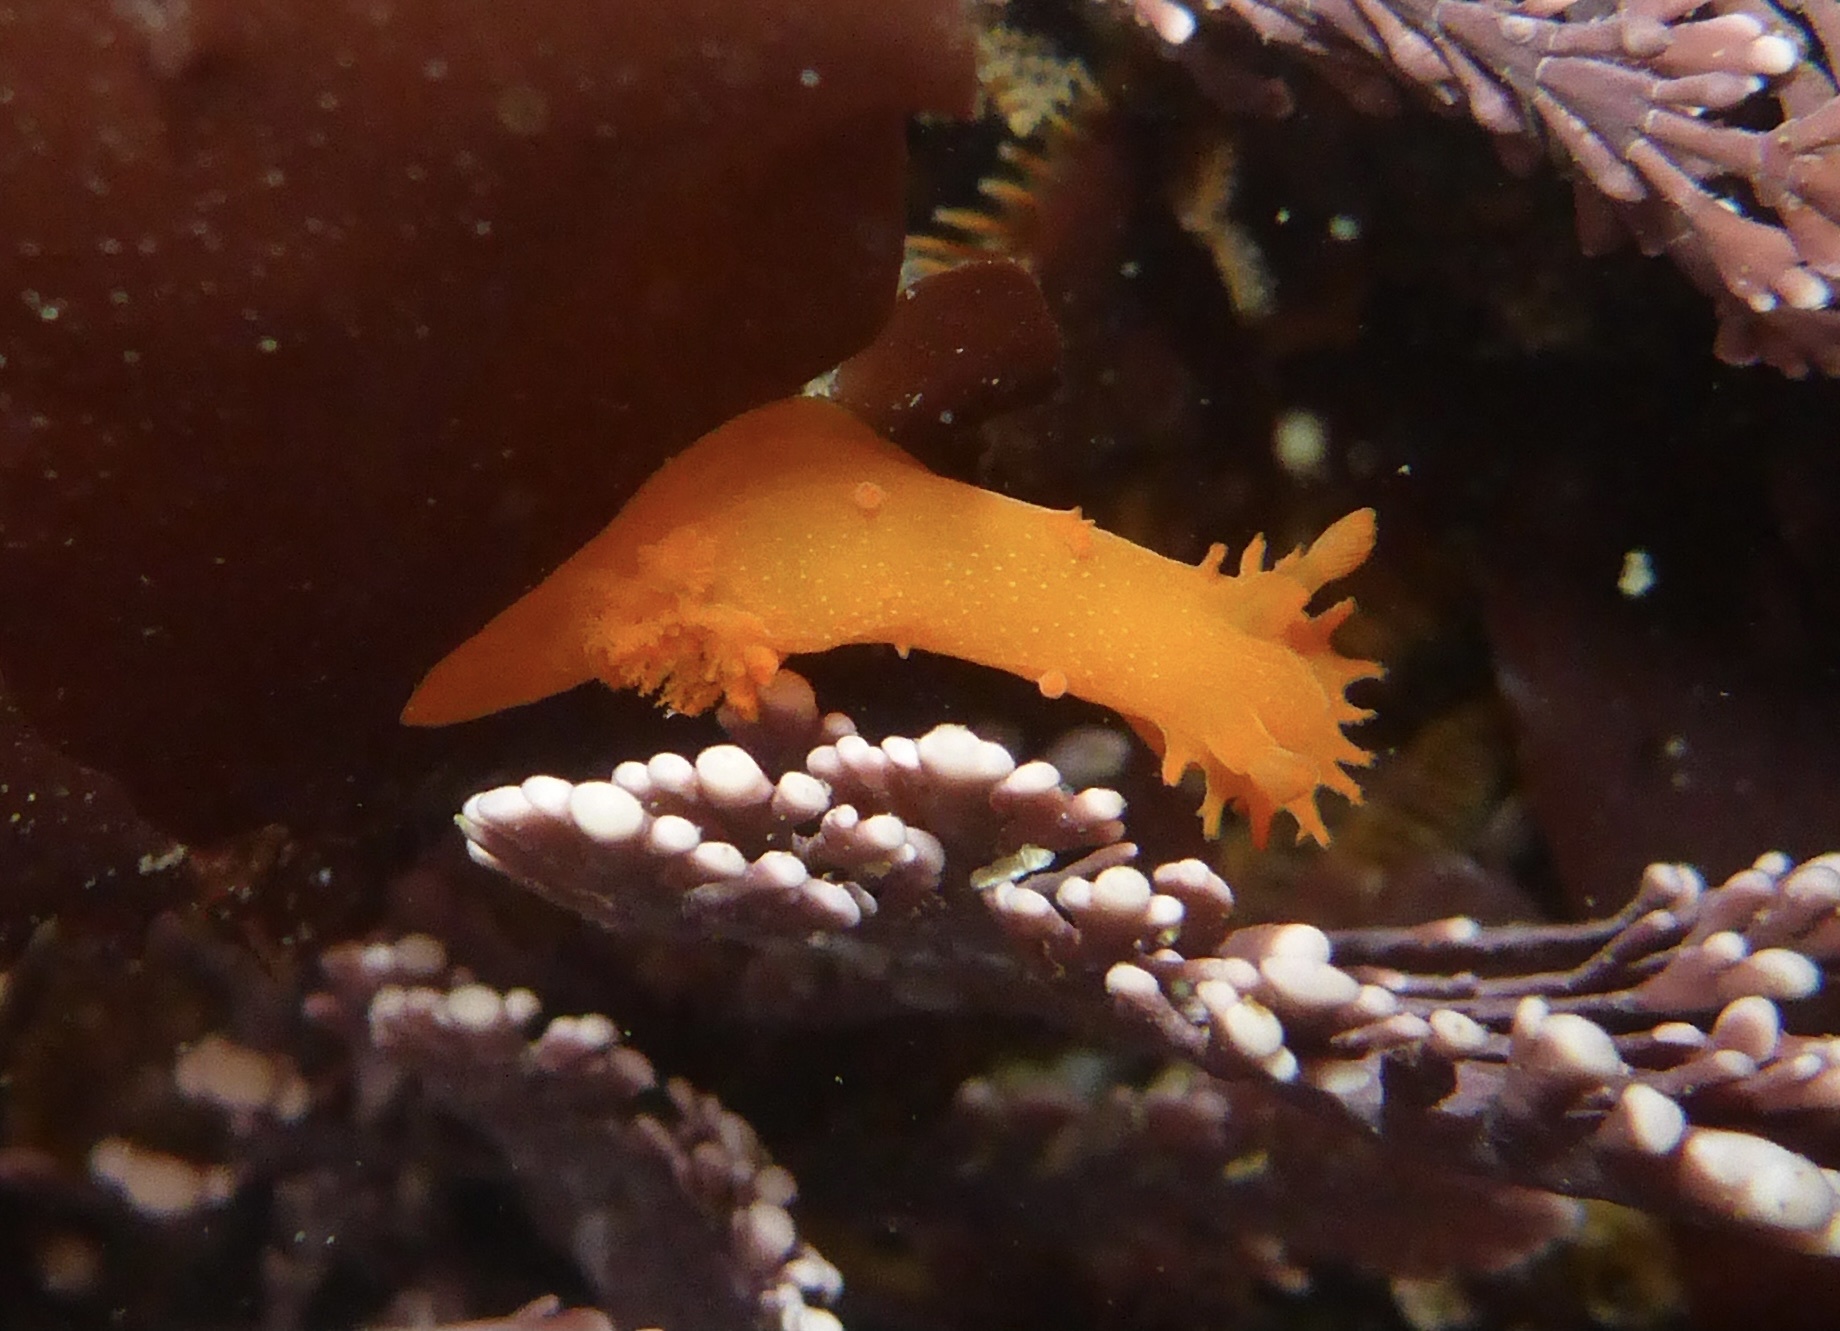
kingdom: Animalia
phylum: Mollusca
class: Gastropoda
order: Nudibranchia
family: Polyceridae
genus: Triopha
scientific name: Triopha maculata
